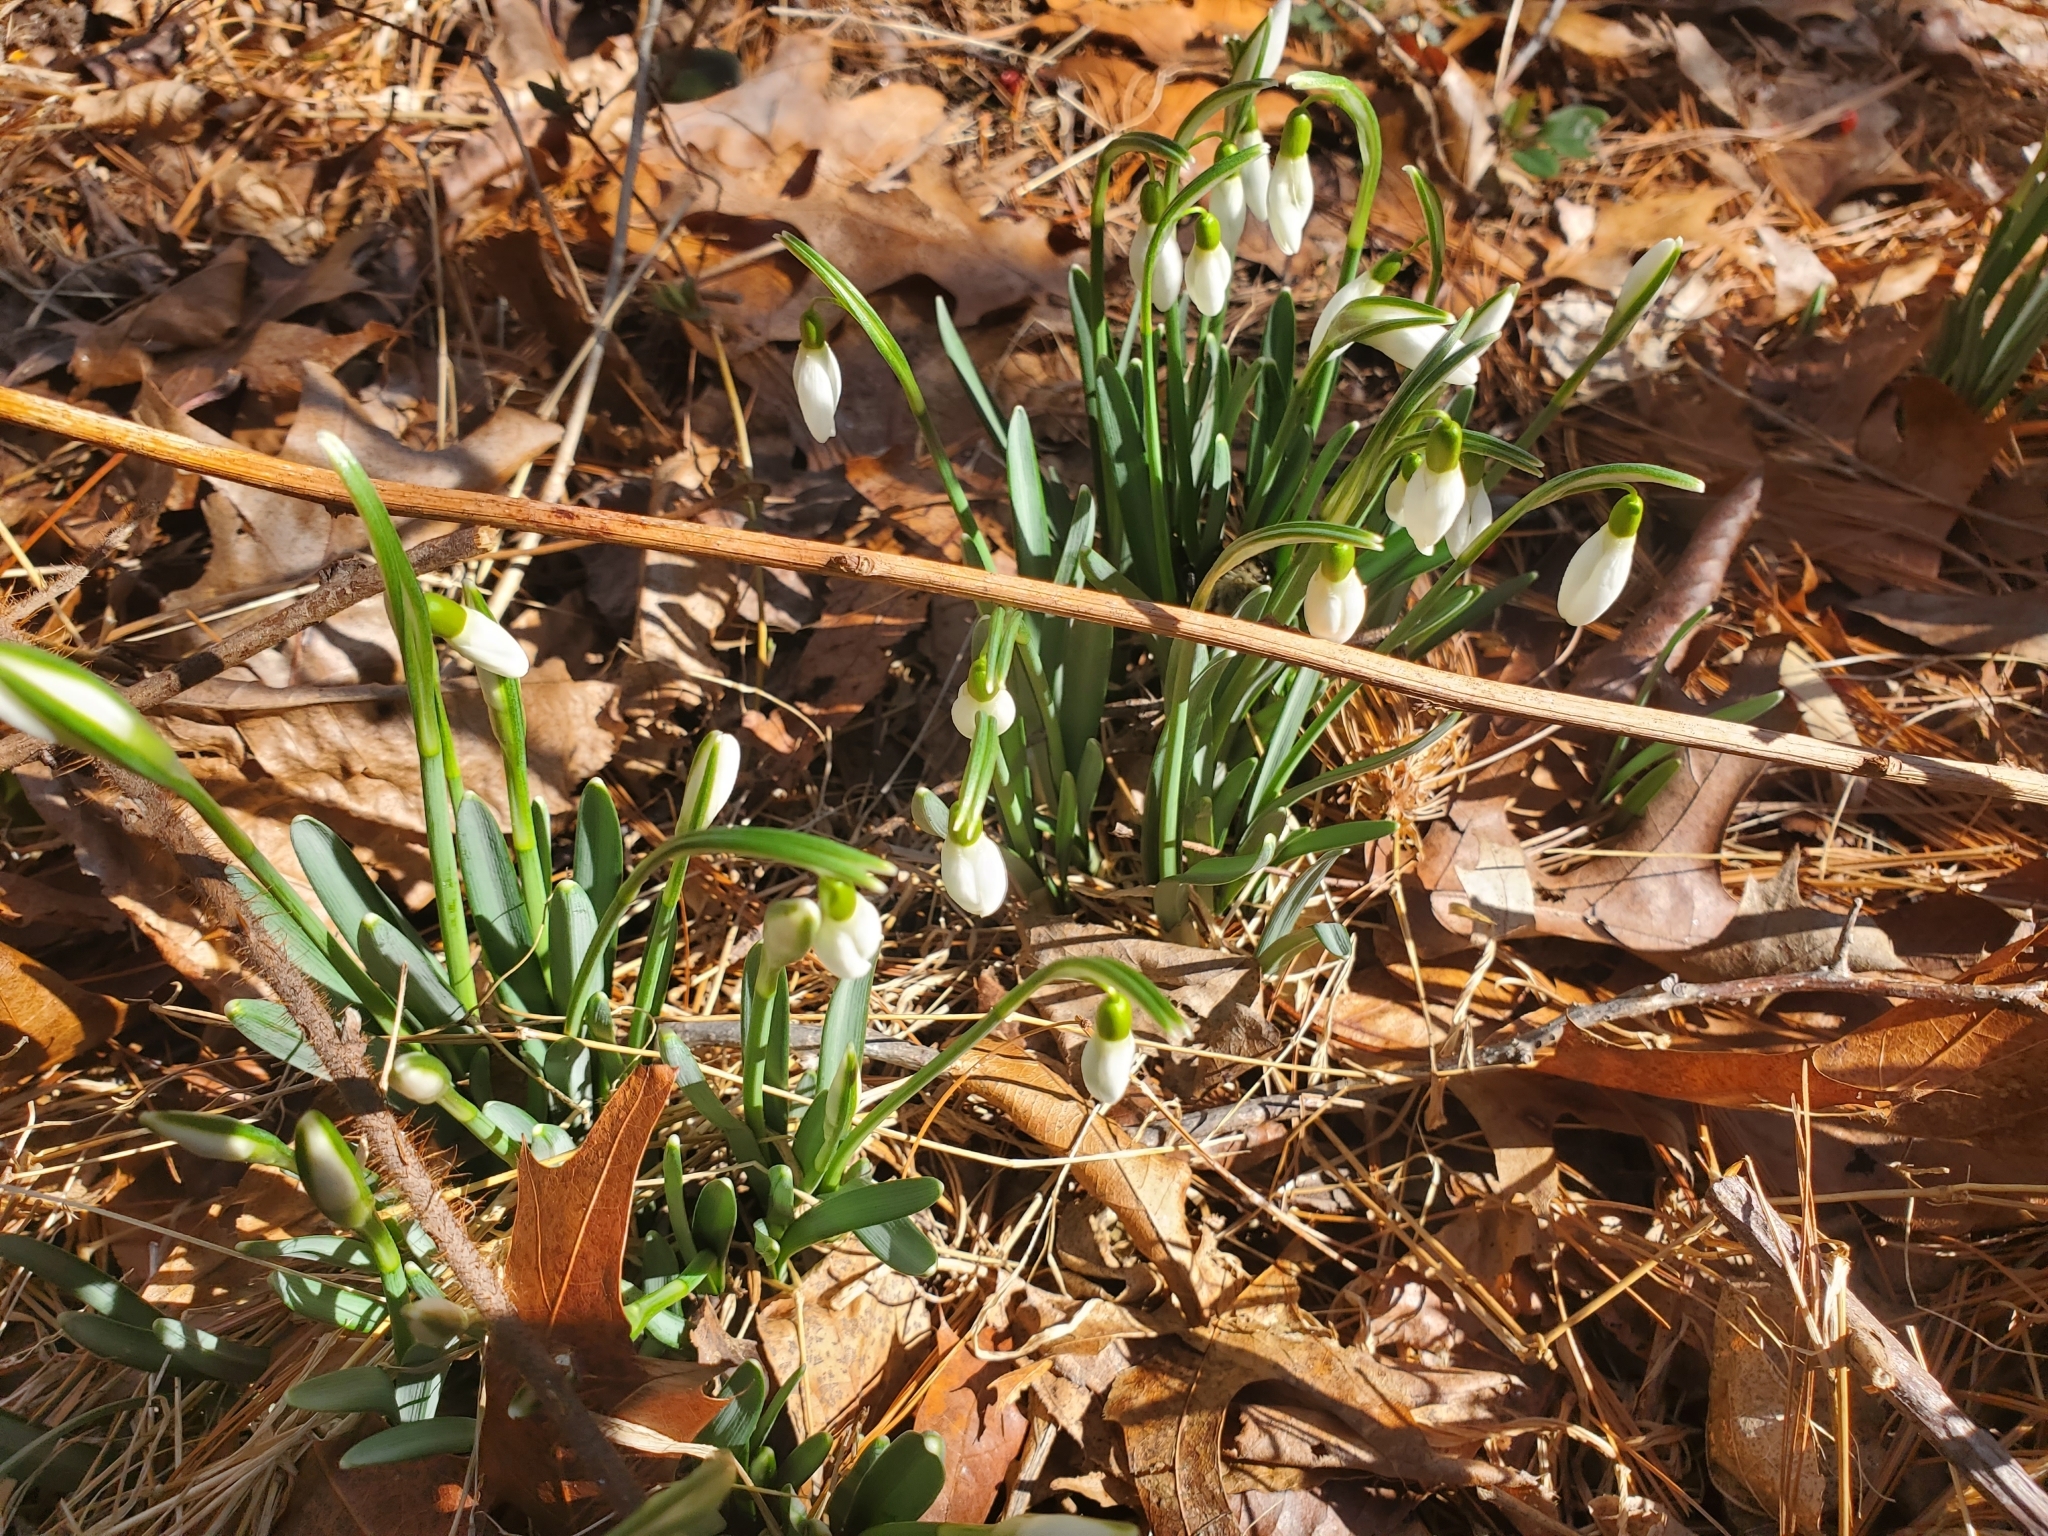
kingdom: Plantae
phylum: Tracheophyta
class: Liliopsida
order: Asparagales
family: Amaryllidaceae
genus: Galanthus
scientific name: Galanthus nivalis
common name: Snowdrop
